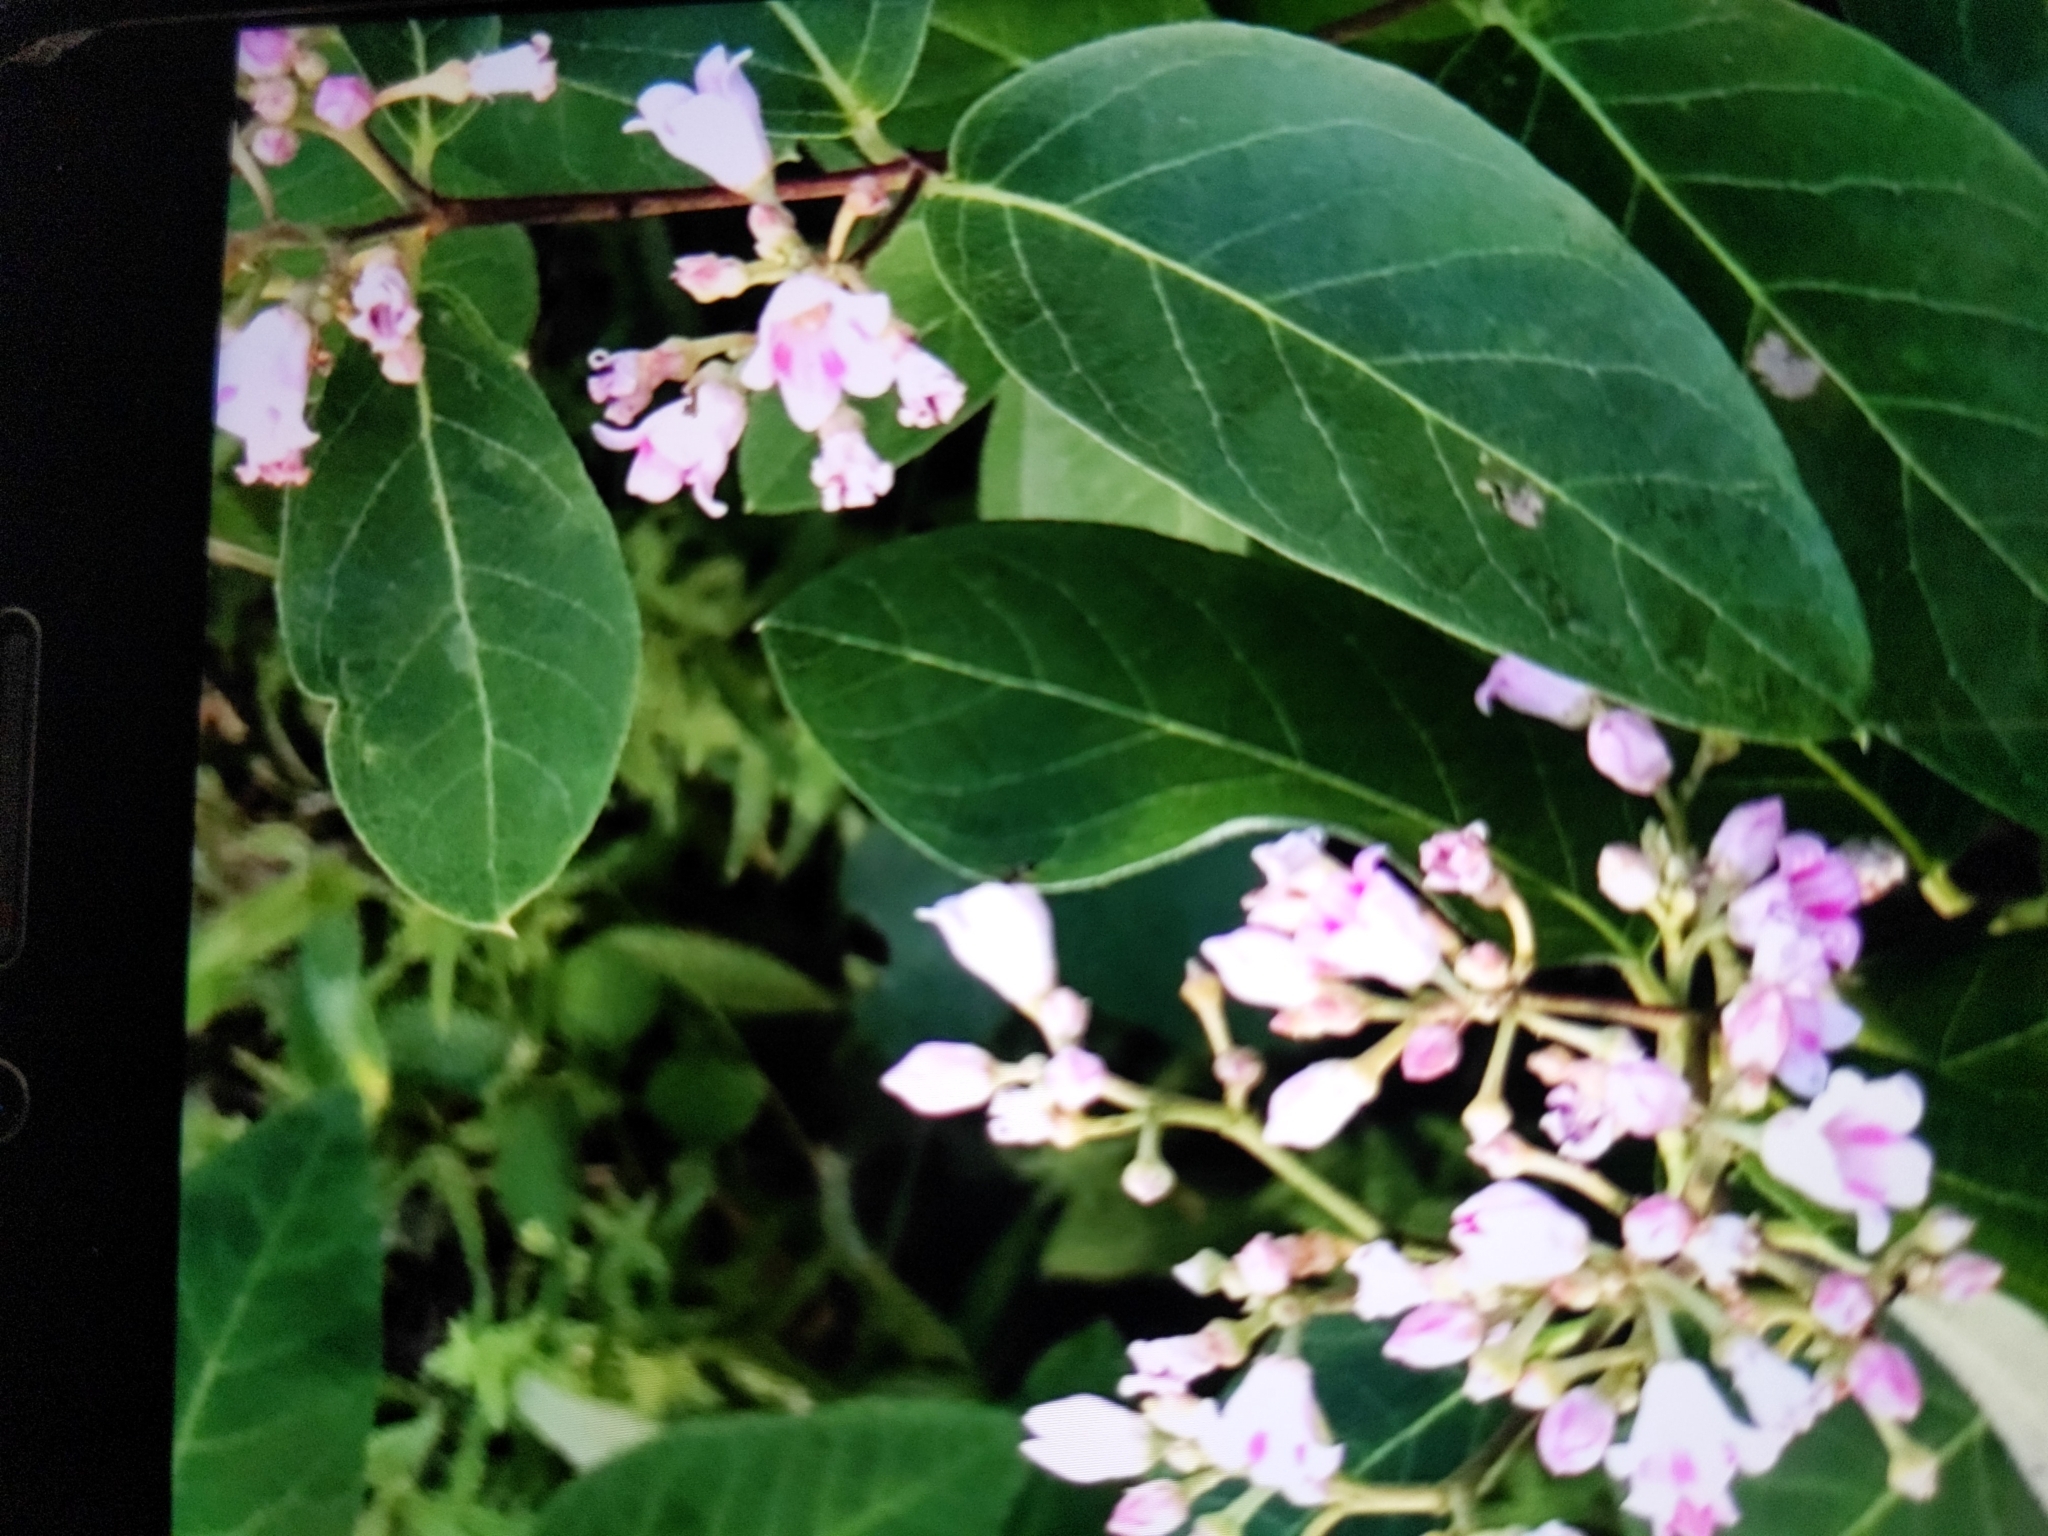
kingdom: Plantae
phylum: Tracheophyta
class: Magnoliopsida
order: Gentianales
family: Apocynaceae
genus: Apocynum
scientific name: Apocynum androsaemifolium
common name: Spreading dogbane
